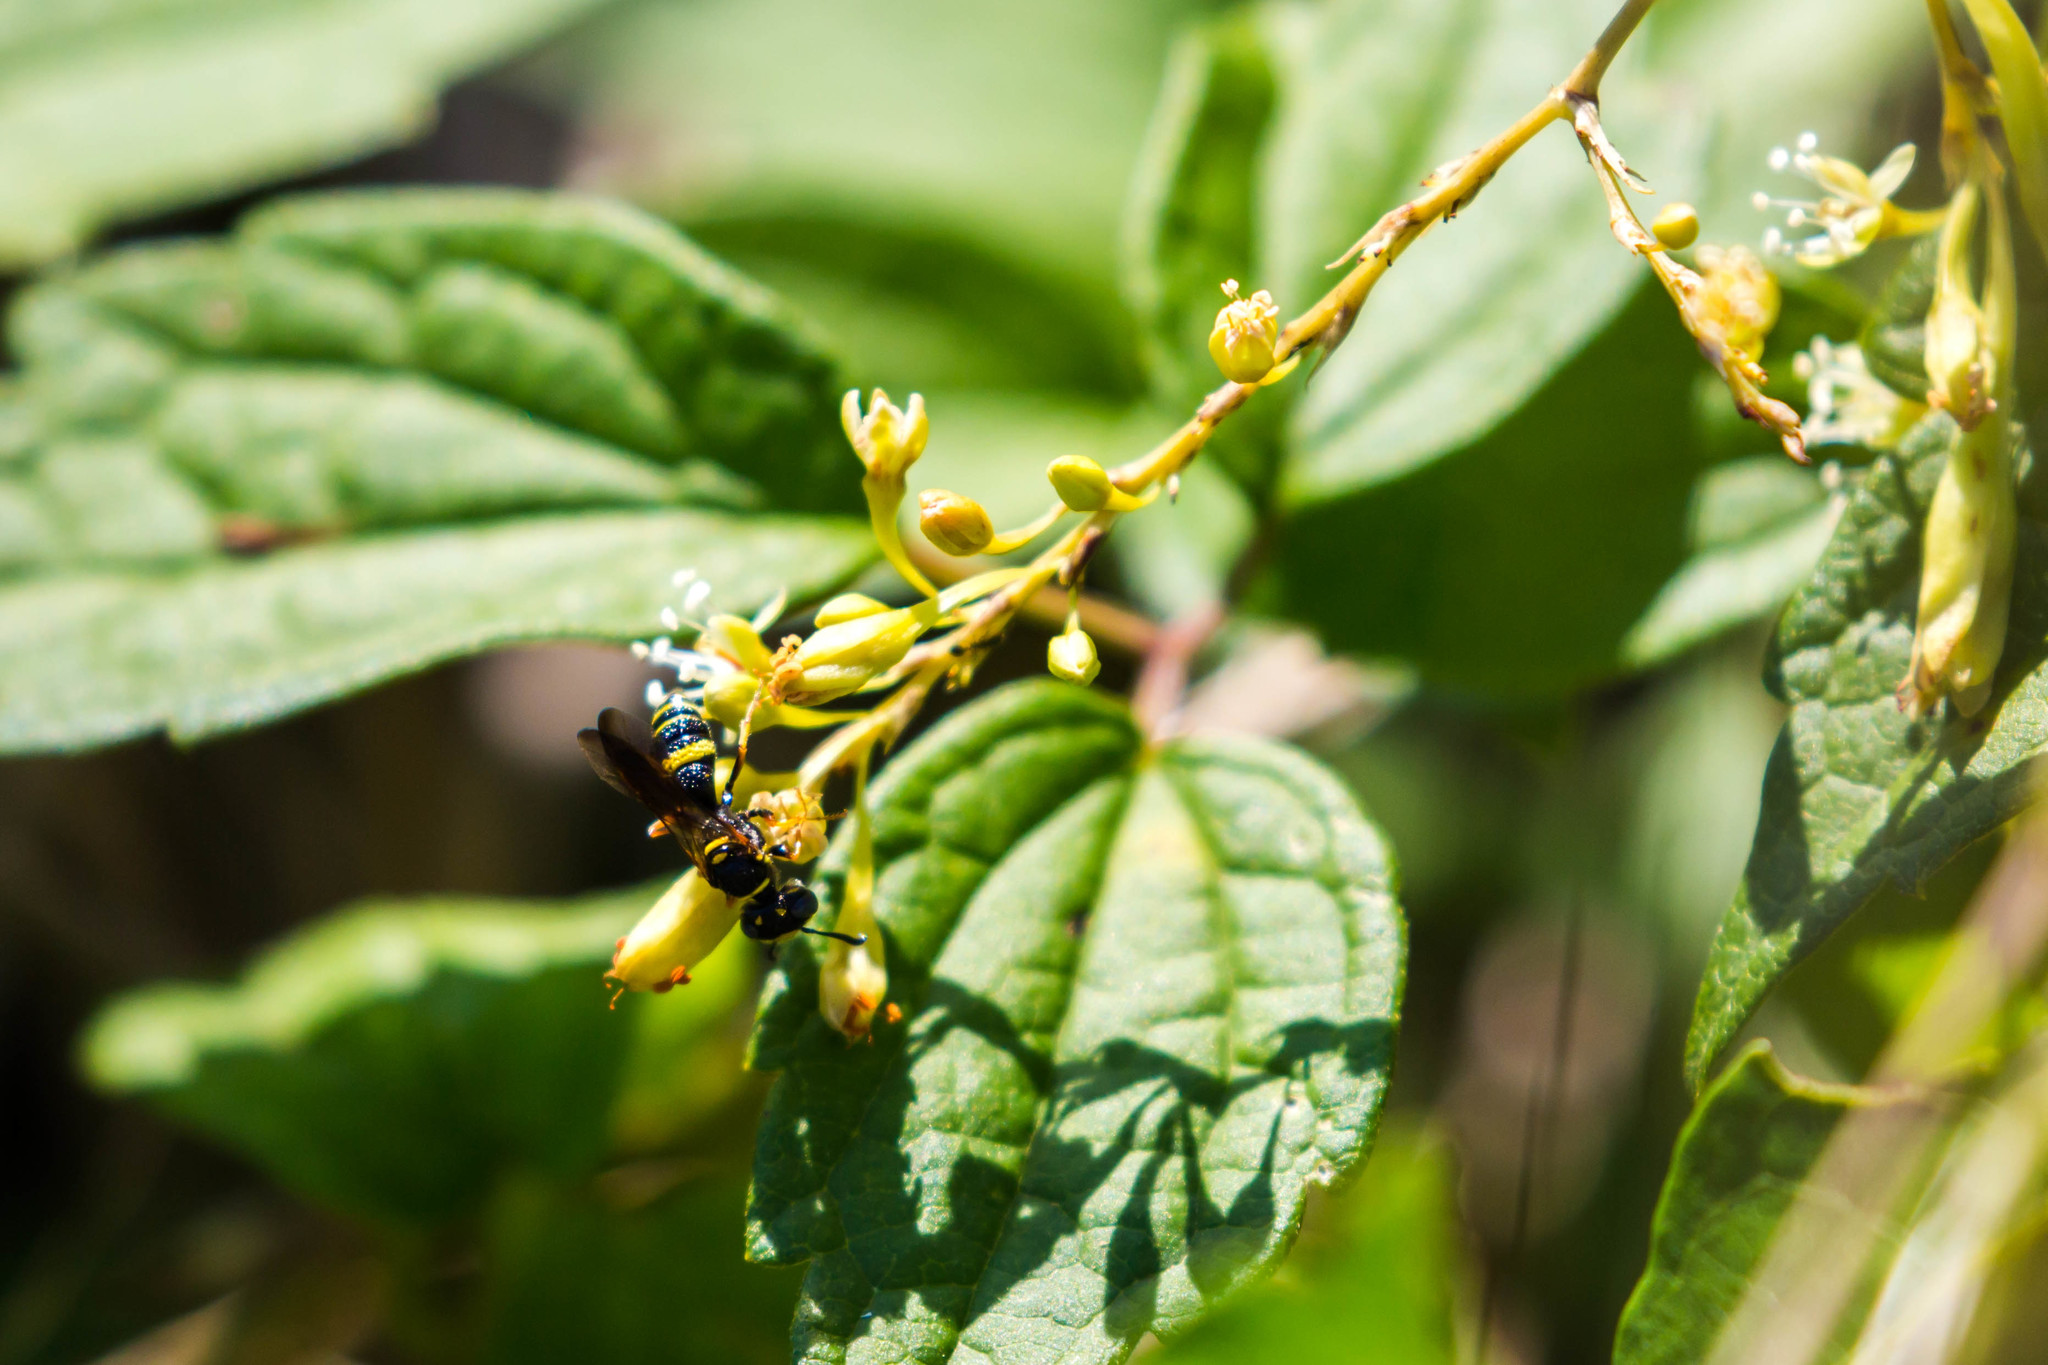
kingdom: Animalia
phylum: Arthropoda
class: Insecta
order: Hymenoptera
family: Crabronidae
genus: Philanthus
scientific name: Philanthus gibbosus
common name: Humped beewolf
